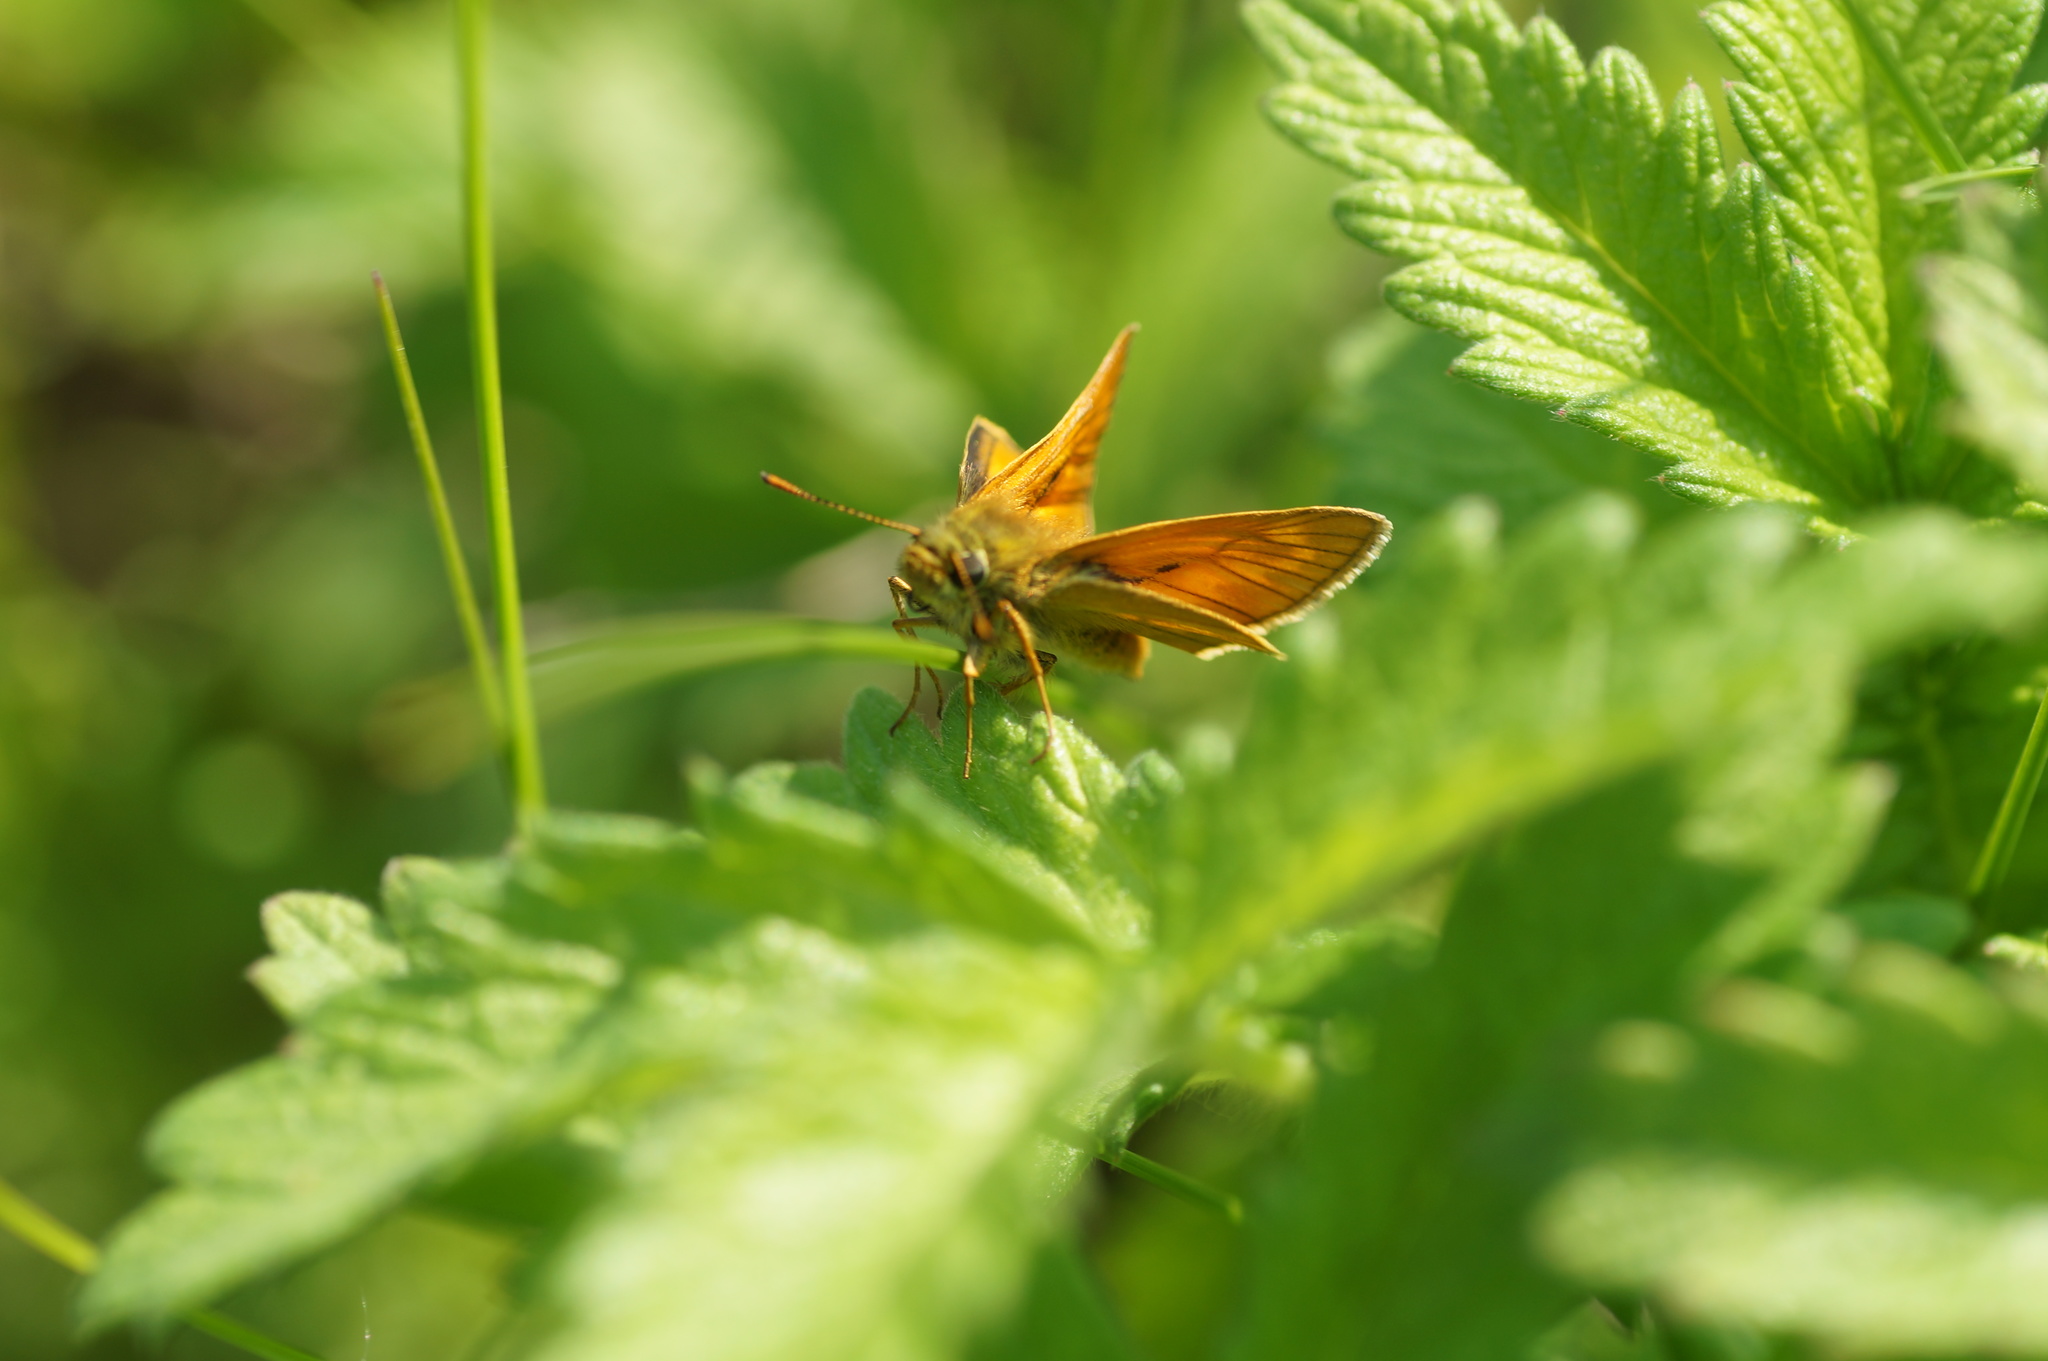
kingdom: Animalia
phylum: Arthropoda
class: Insecta
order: Lepidoptera
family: Hesperiidae
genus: Ochlodes
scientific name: Ochlodes venata
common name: Large skipper
